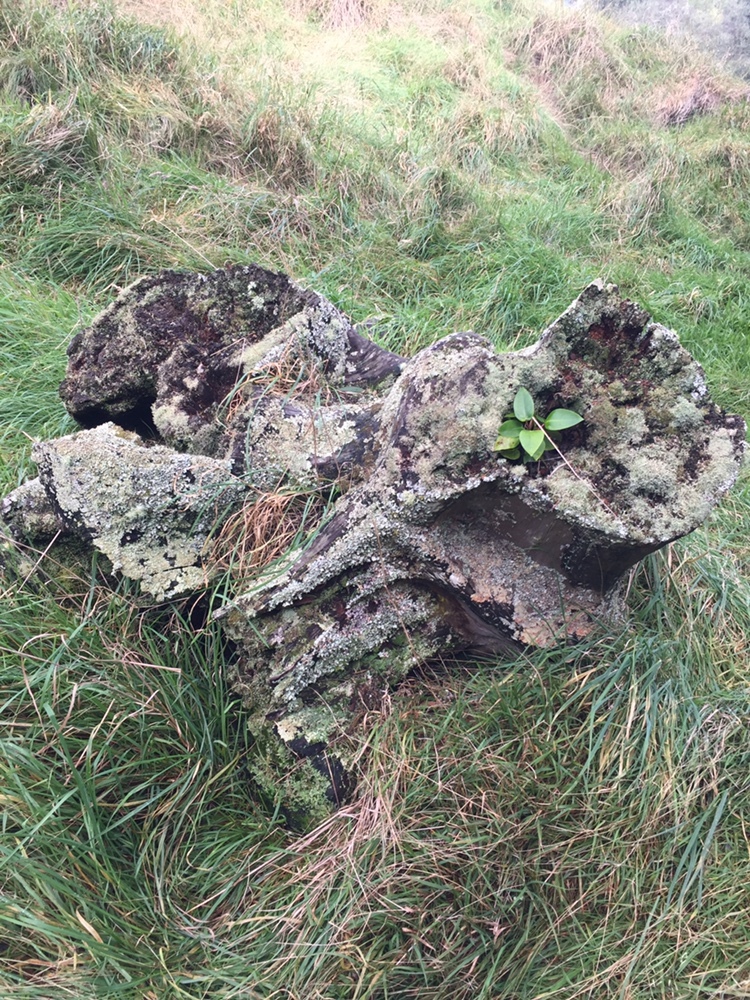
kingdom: Fungi
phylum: Ascomycota
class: Lecanoromycetes
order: Lecanorales
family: Cladoniaceae
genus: Cladonia
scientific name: Cladonia furcata
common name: Many-forked cladonia
